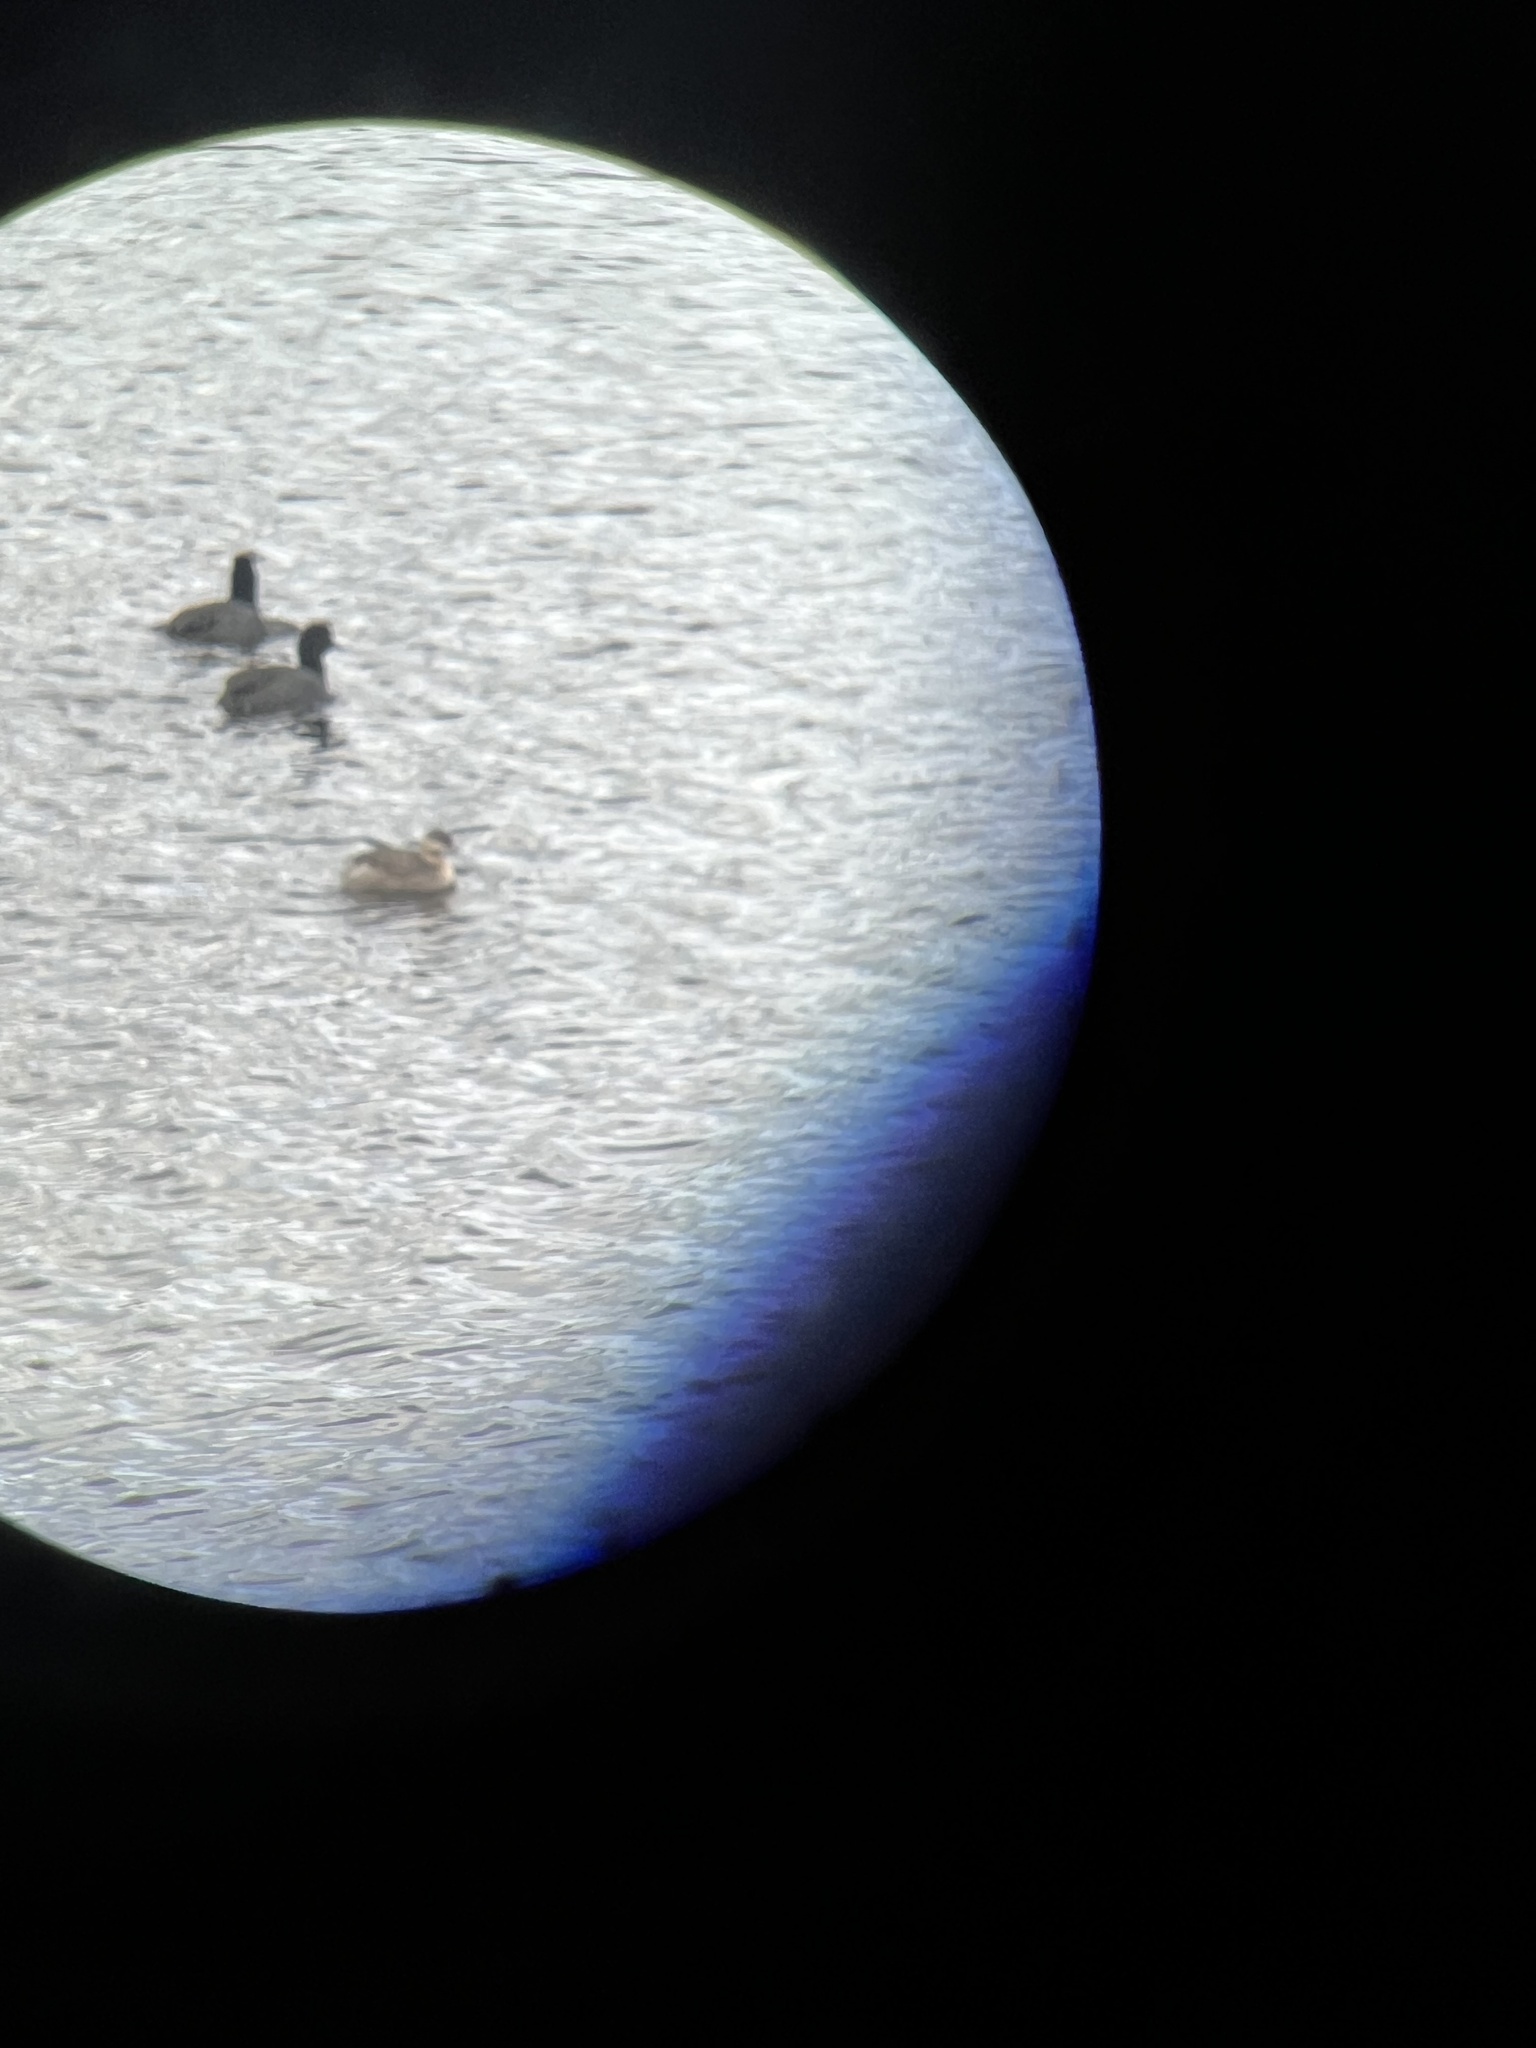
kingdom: Animalia
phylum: Chordata
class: Aves
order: Podicipediformes
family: Podicipedidae
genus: Poliocephalus
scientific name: Poliocephalus poliocephalus
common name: Hoary-headed grebe
